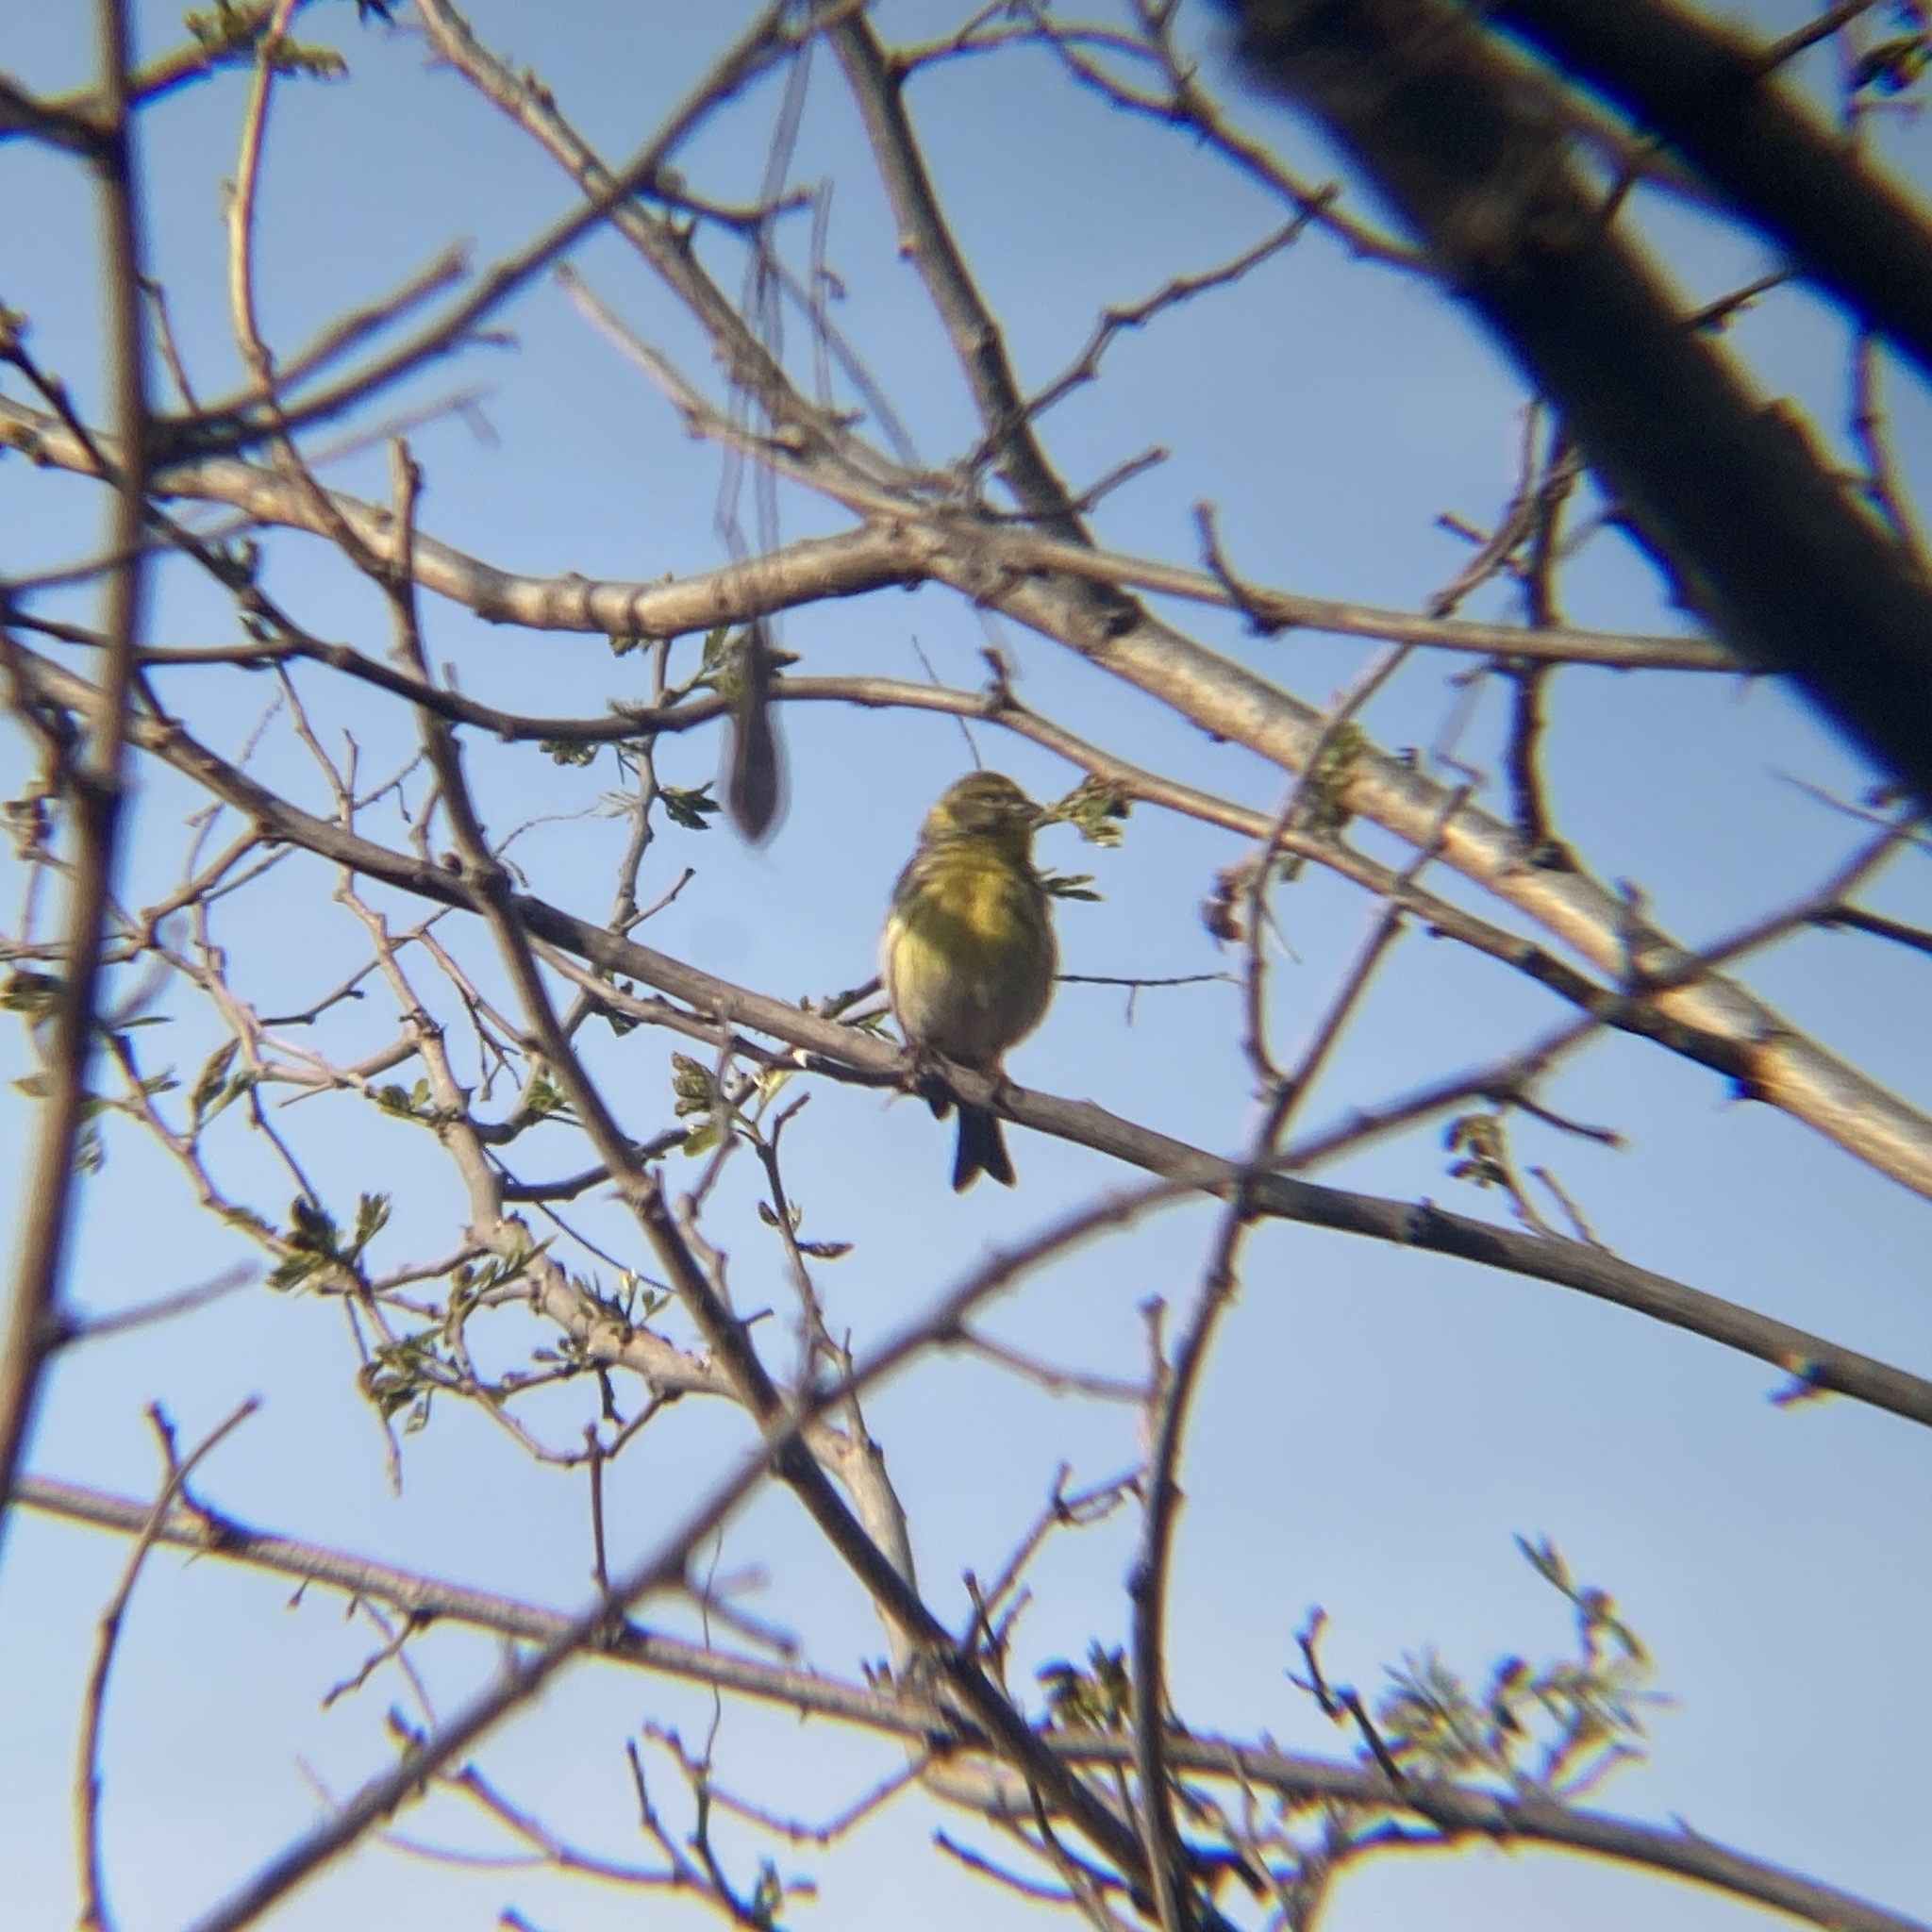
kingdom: Animalia
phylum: Chordata
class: Aves
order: Passeriformes
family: Fringillidae
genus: Serinus
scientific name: Serinus serinus
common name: European serin
